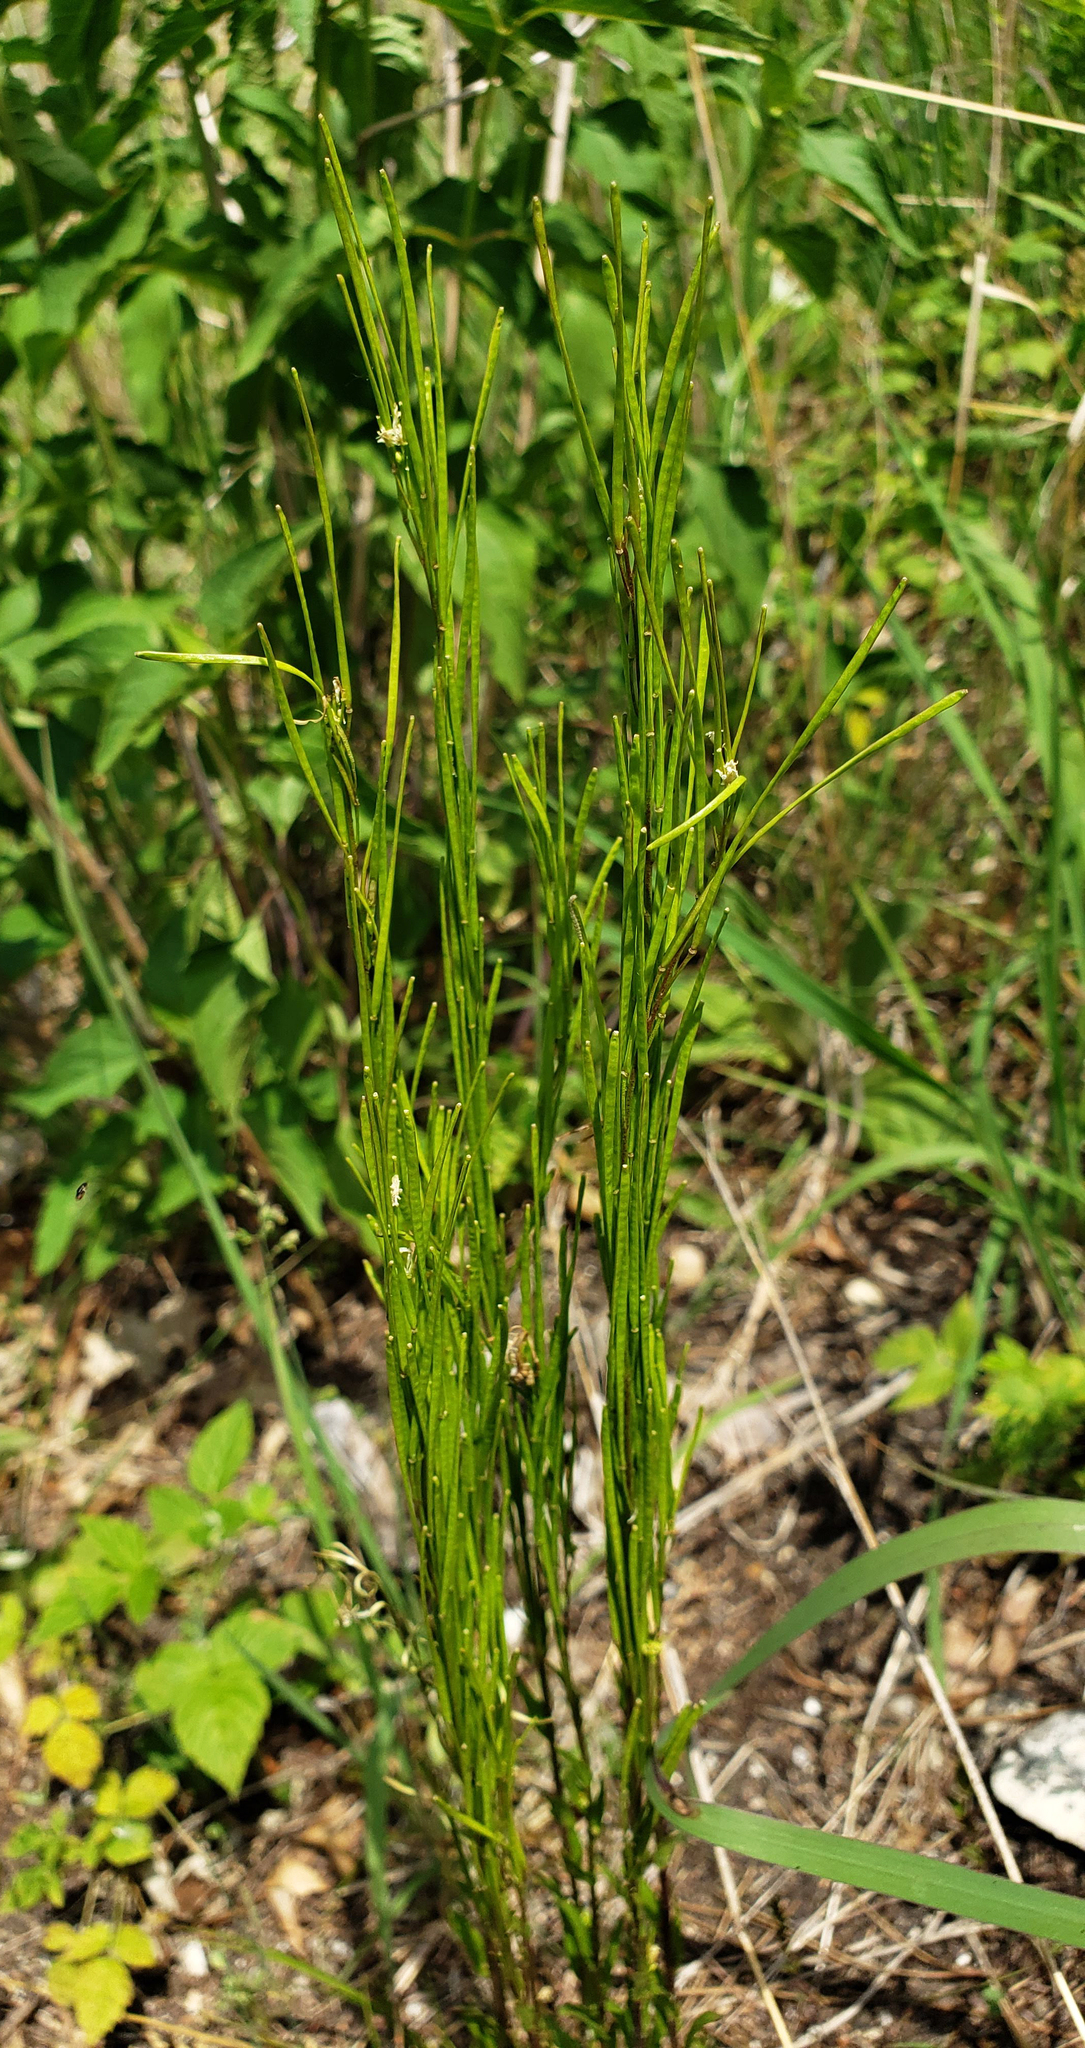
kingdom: Plantae
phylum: Tracheophyta
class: Magnoliopsida
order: Brassicales
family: Brassicaceae
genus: Arabis
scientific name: Arabis pycnocarpa
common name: Blushing rockcress
